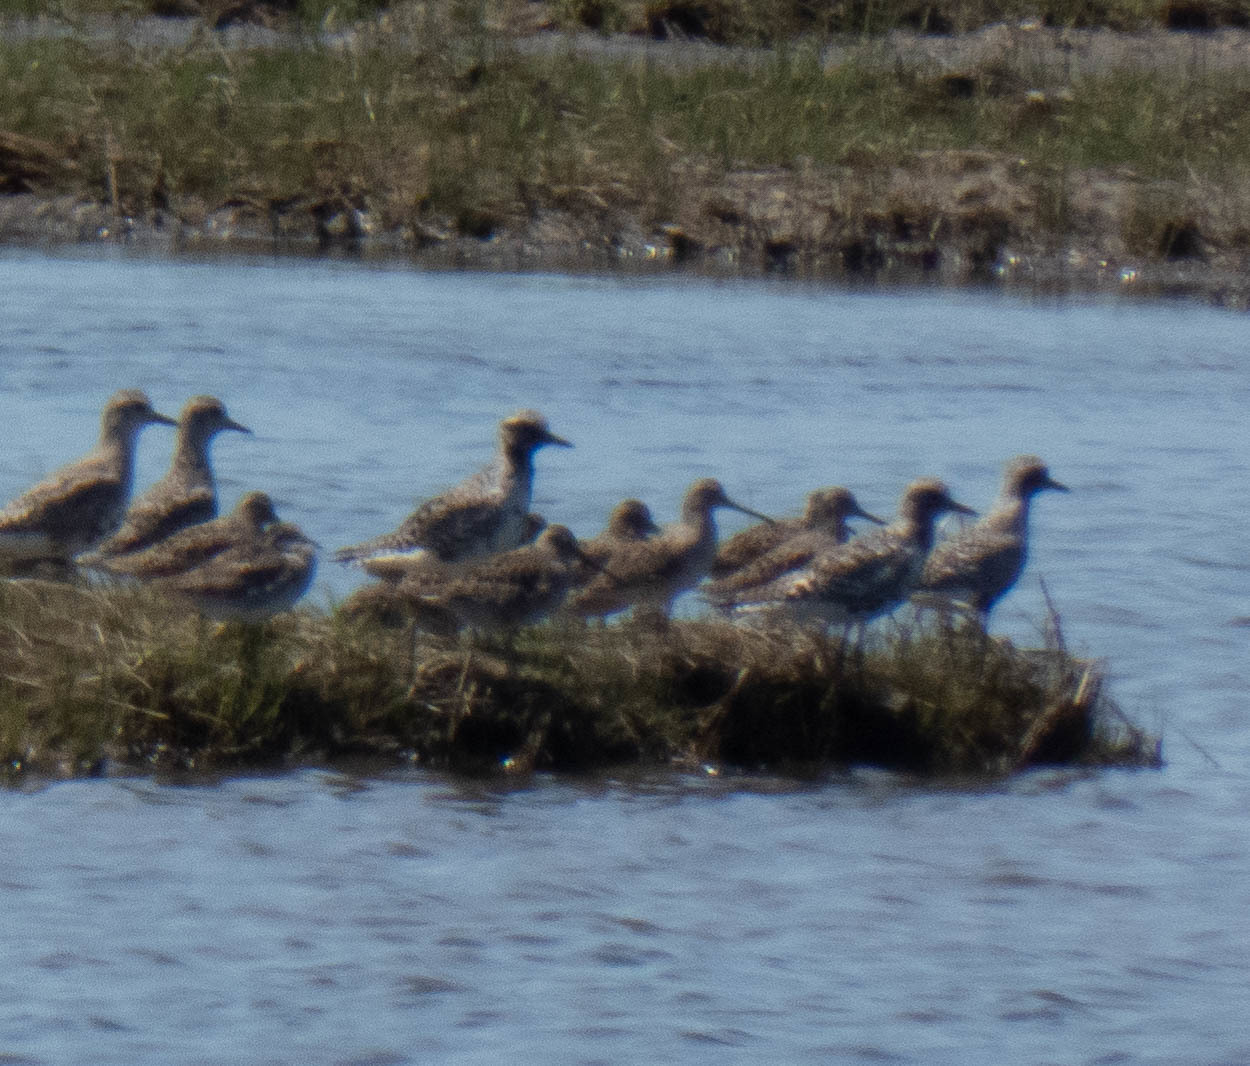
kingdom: Animalia
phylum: Chordata
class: Aves
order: Charadriiformes
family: Scolopacidae
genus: Limnodromus
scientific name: Limnodromus
